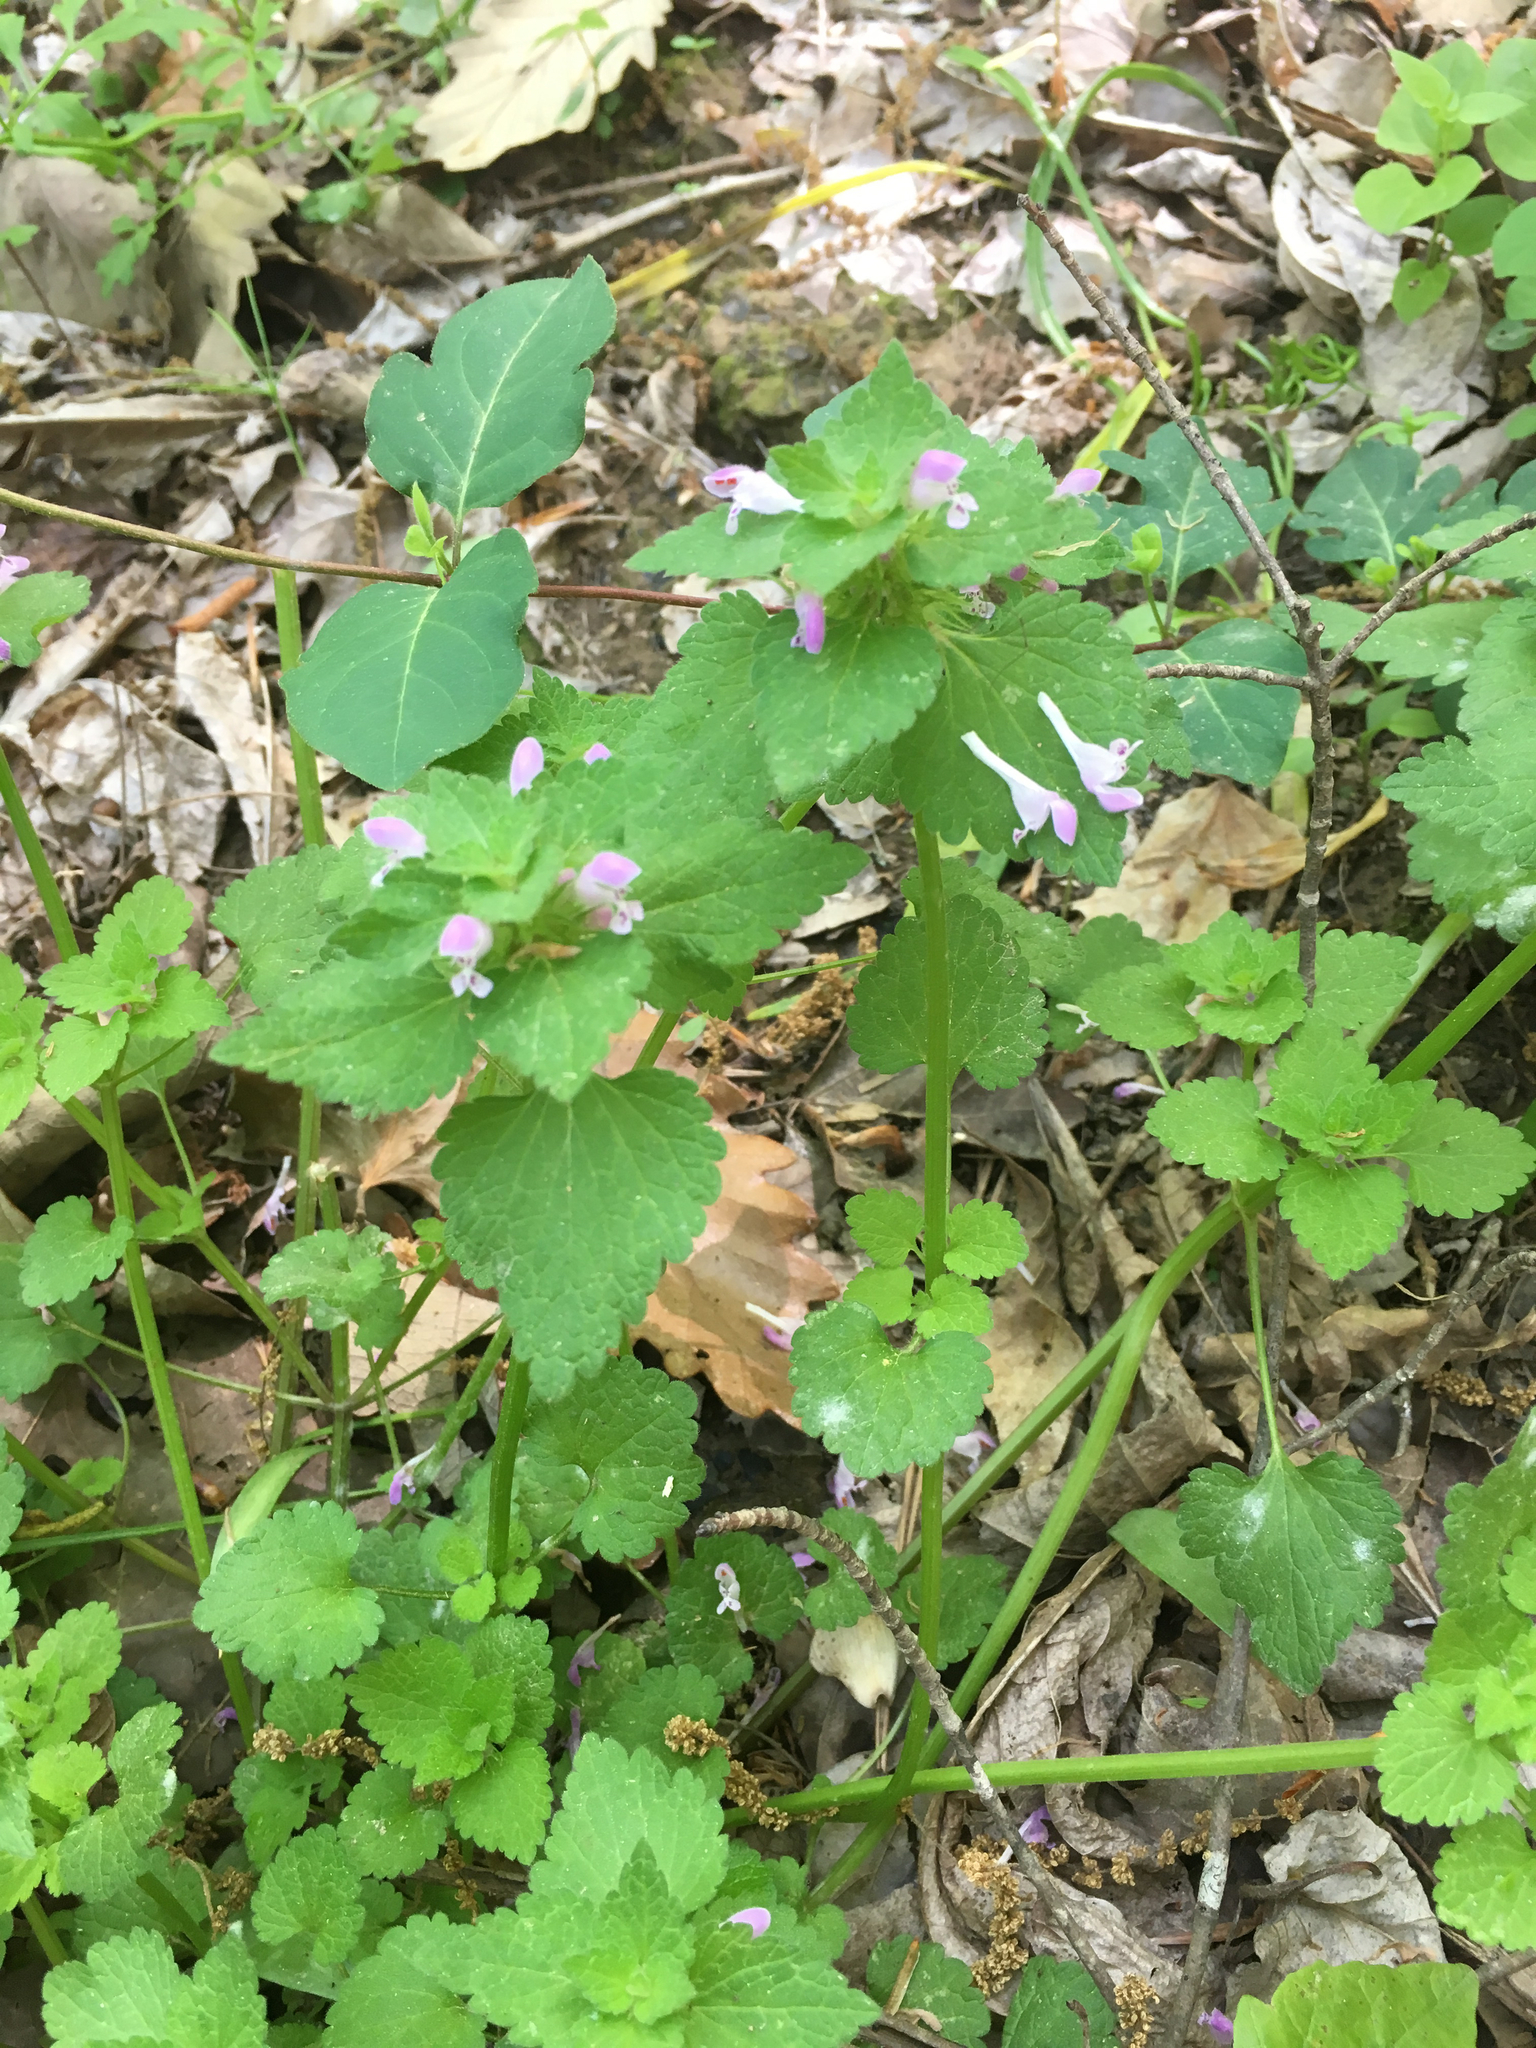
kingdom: Plantae
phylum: Tracheophyta
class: Magnoliopsida
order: Lamiales
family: Lamiaceae
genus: Lamium
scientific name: Lamium purpureum
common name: Red dead-nettle
